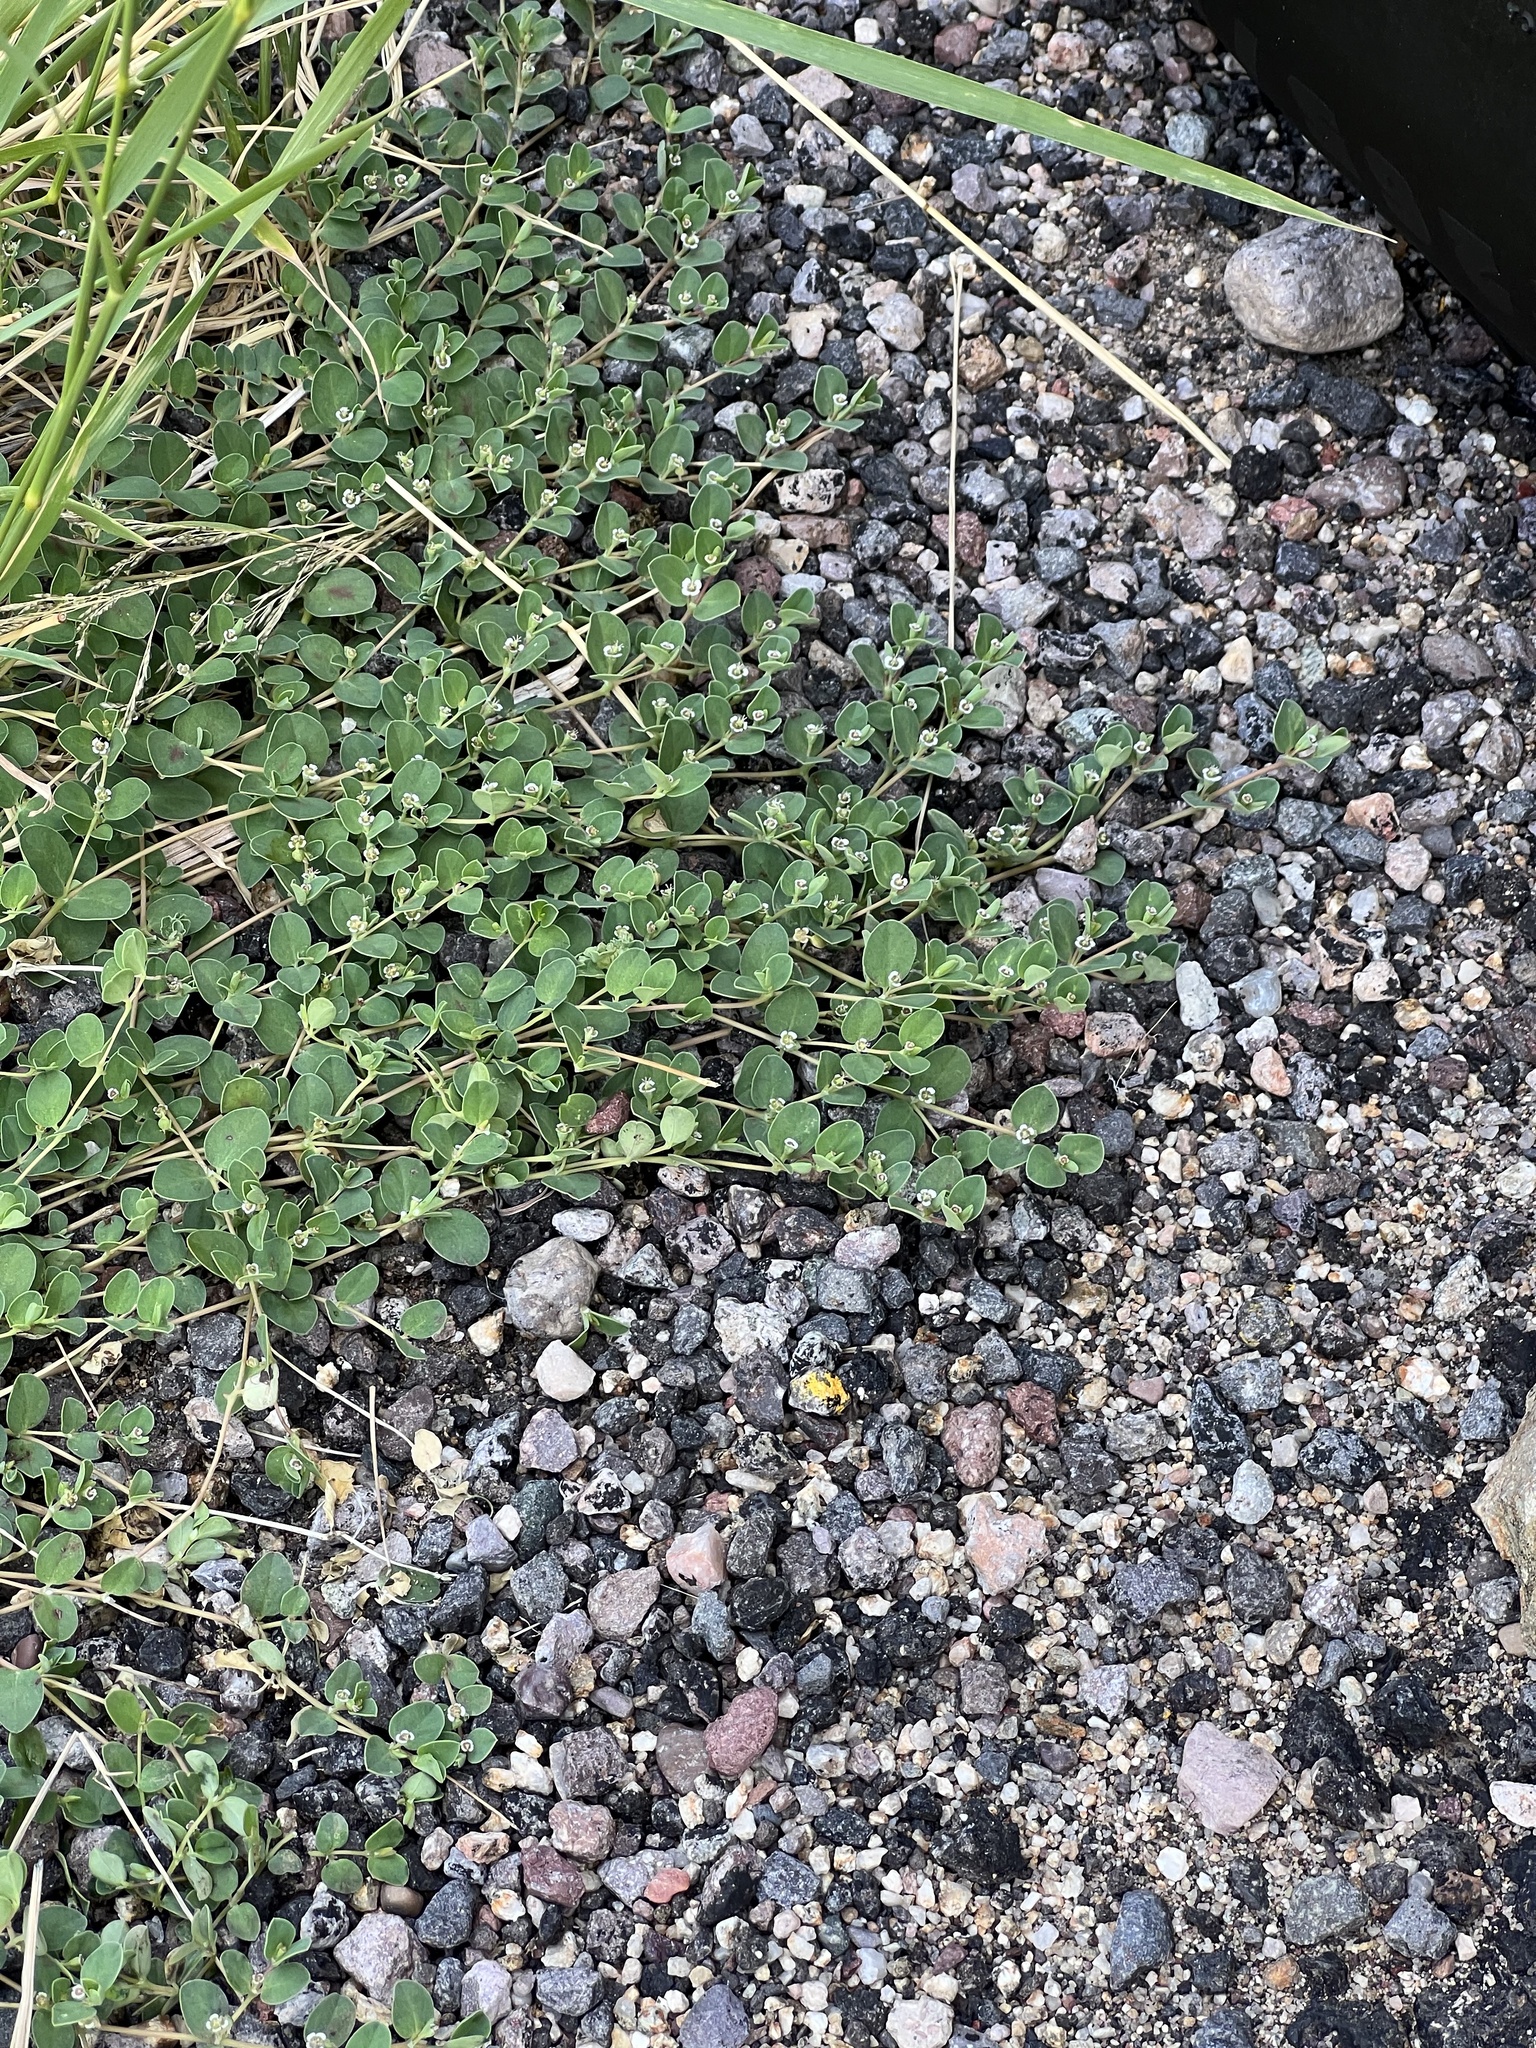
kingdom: Plantae
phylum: Tracheophyta
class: Magnoliopsida
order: Malpighiales
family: Euphorbiaceae
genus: Euphorbia
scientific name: Euphorbia albomarginata
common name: Whitemargin sandmat
